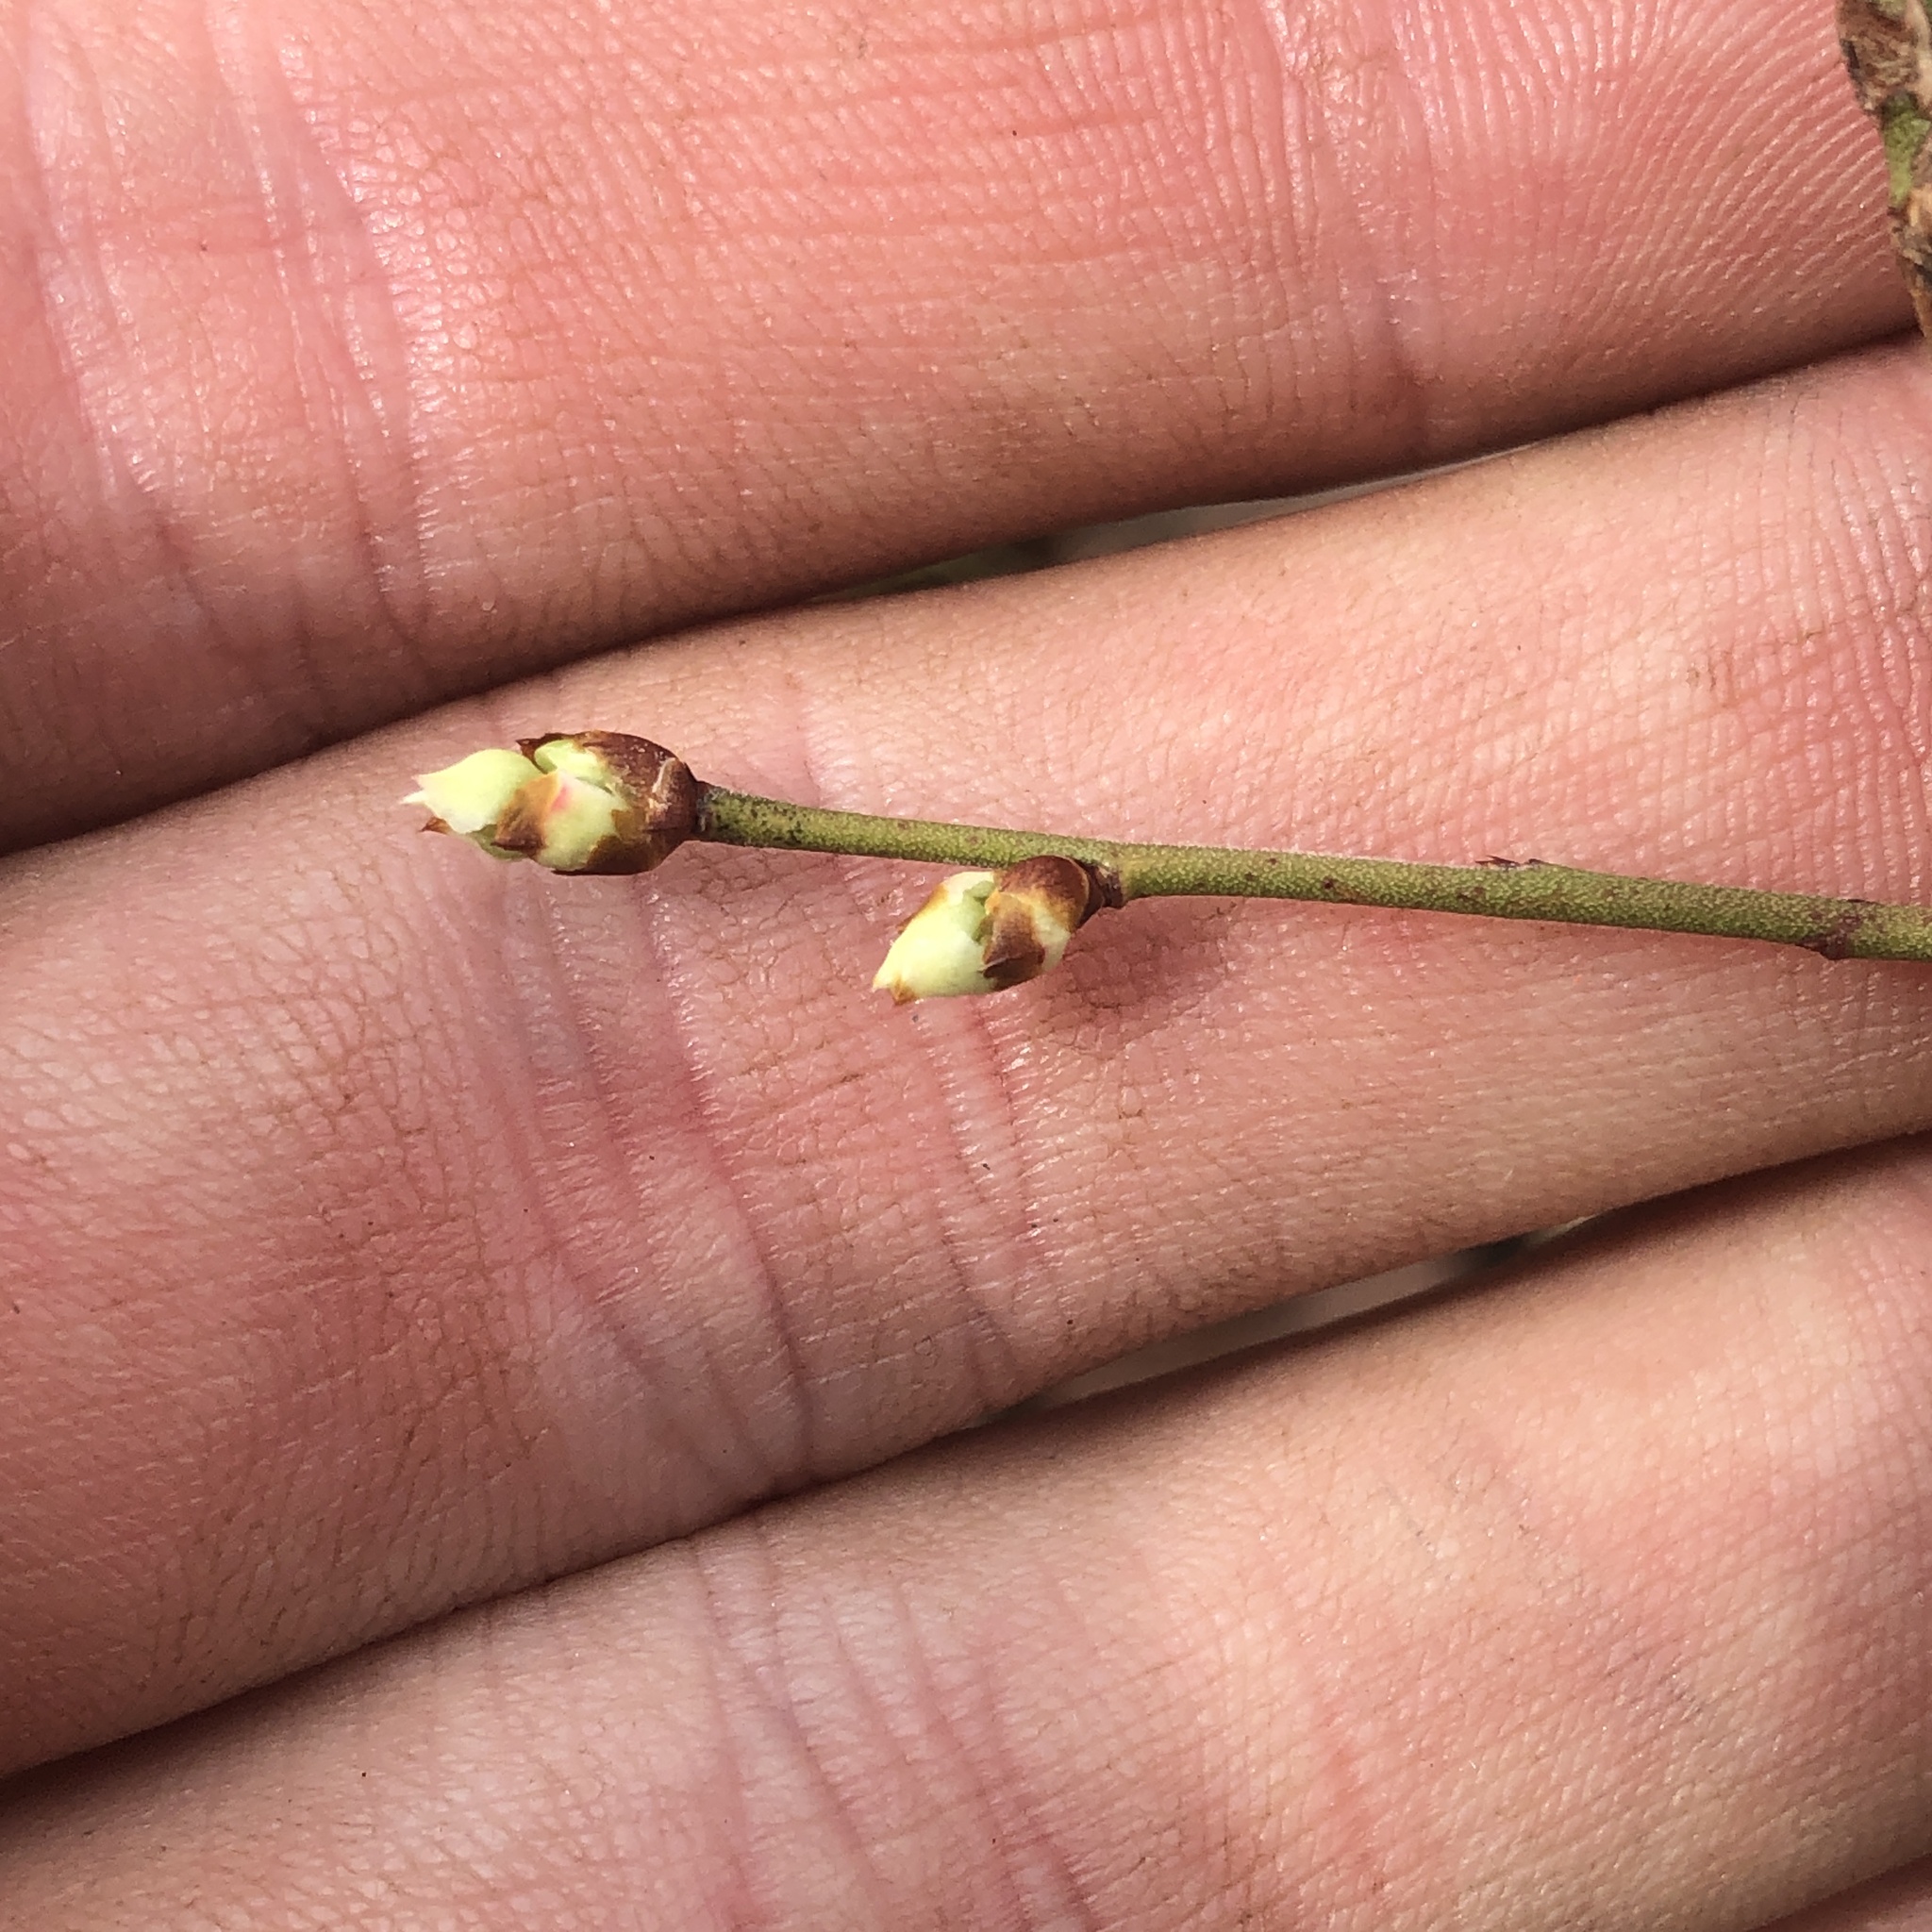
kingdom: Plantae
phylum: Tracheophyta
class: Magnoliopsida
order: Ericales
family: Ericaceae
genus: Vaccinium
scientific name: Vaccinium
